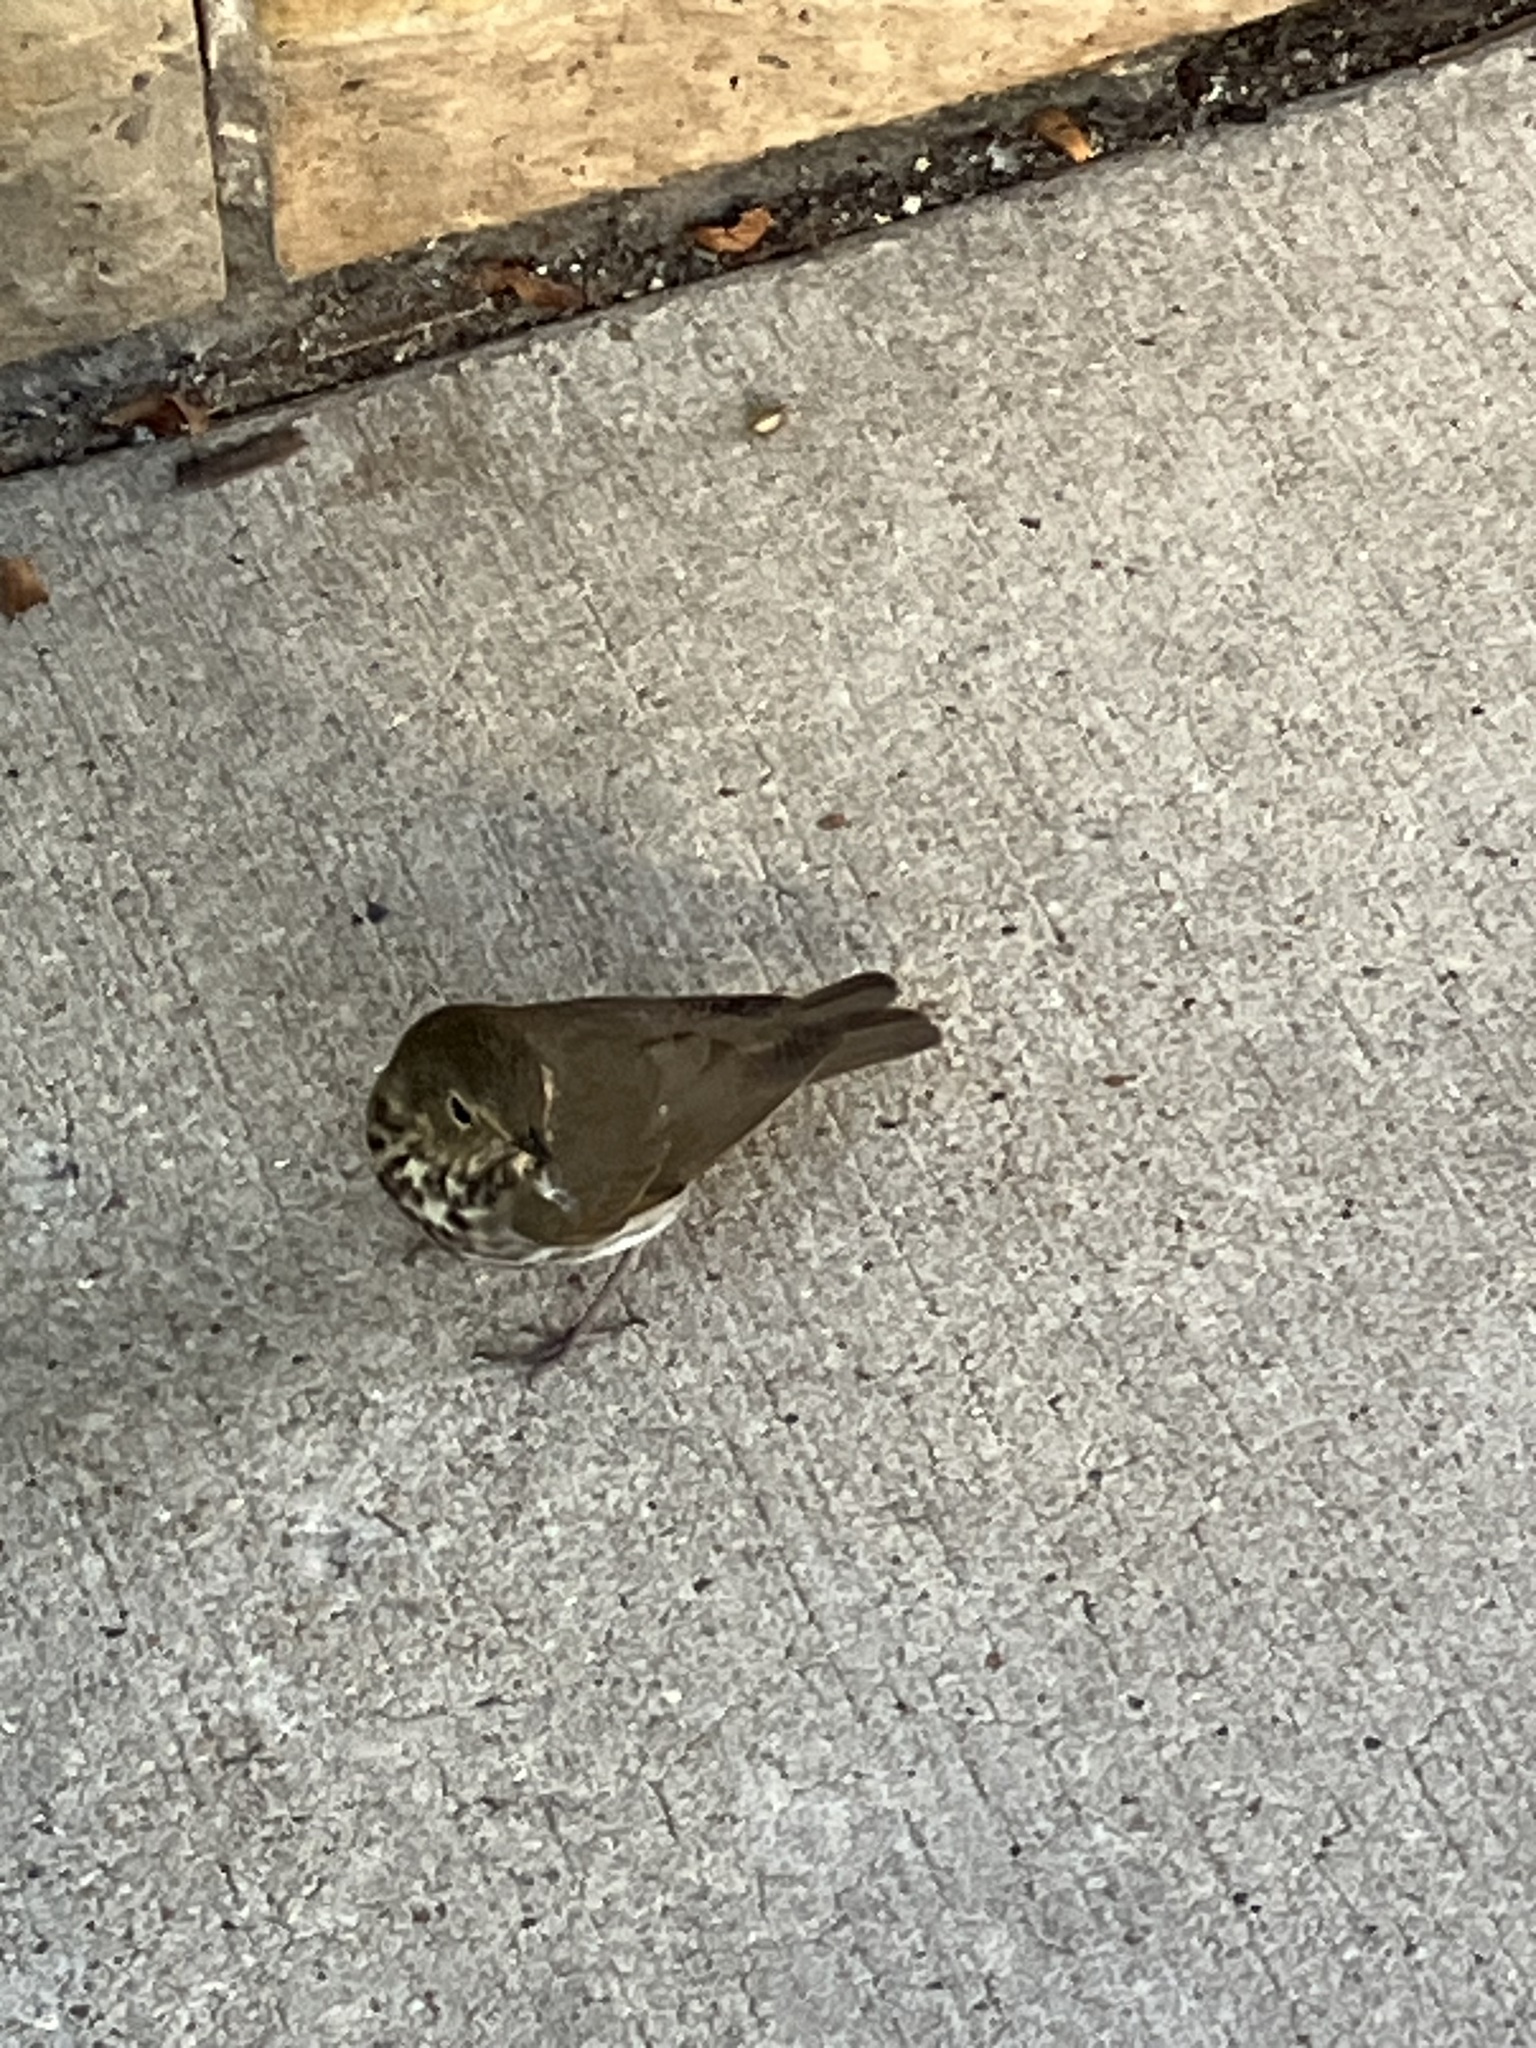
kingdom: Animalia
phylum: Chordata
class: Aves
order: Passeriformes
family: Turdidae
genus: Catharus
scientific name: Catharus ustulatus
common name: Swainson's thrush
